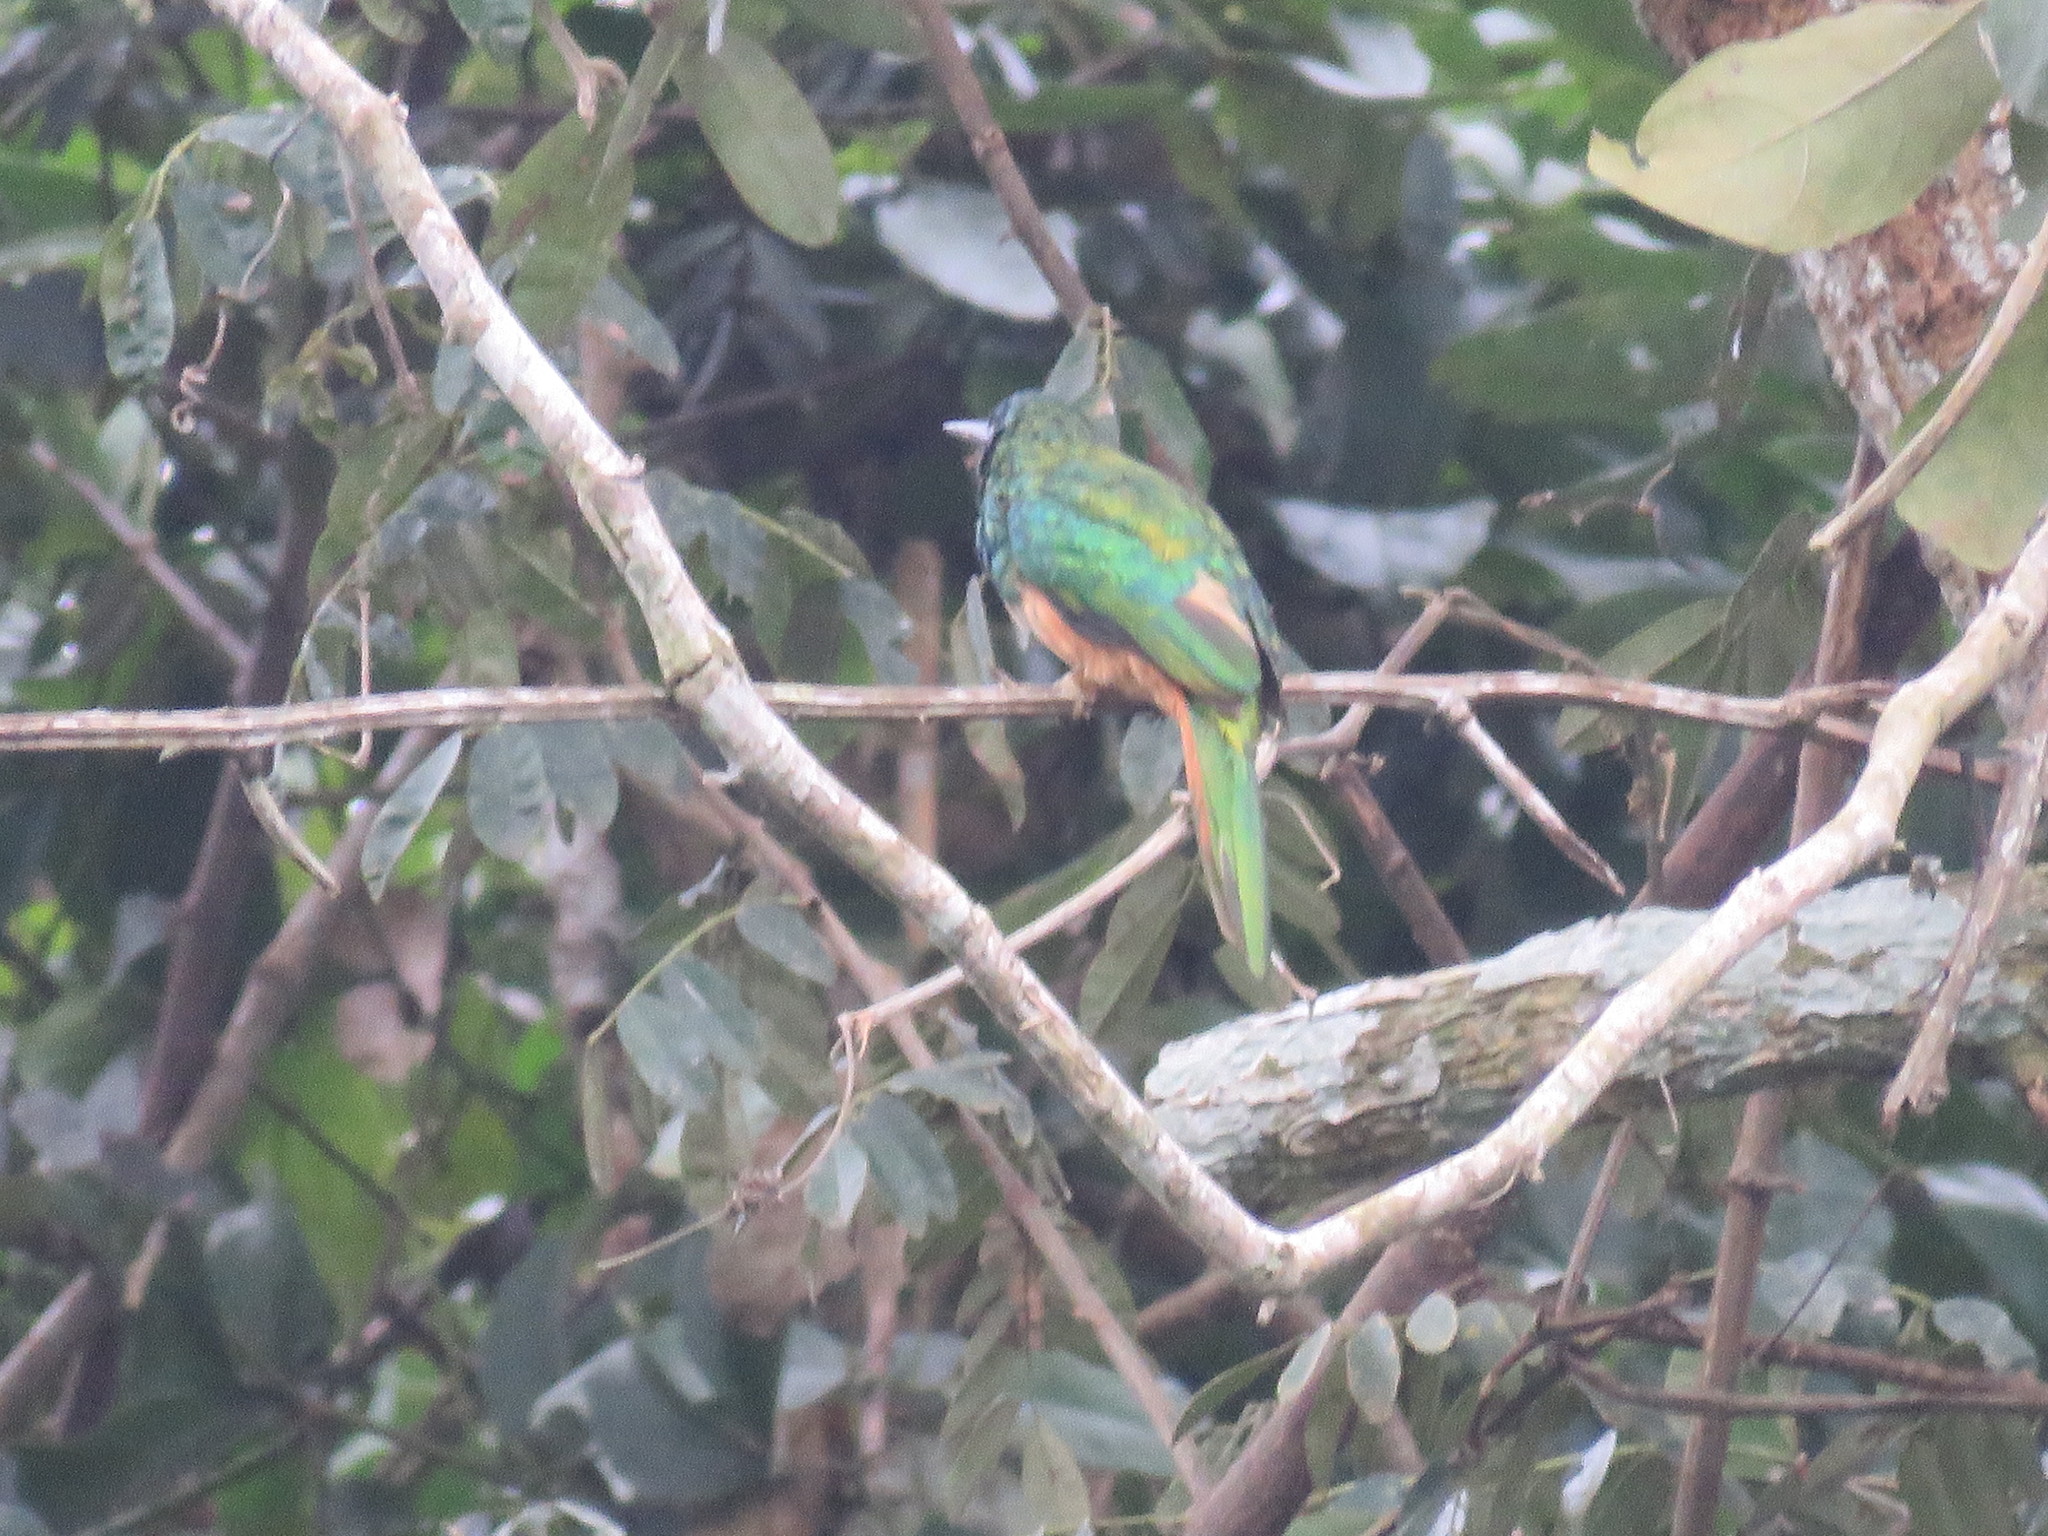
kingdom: Animalia
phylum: Chordata
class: Aves
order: Piciformes
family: Galbulidae
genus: Galbula
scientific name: Galbula ruficauda
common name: Rufous-tailed jacamar
